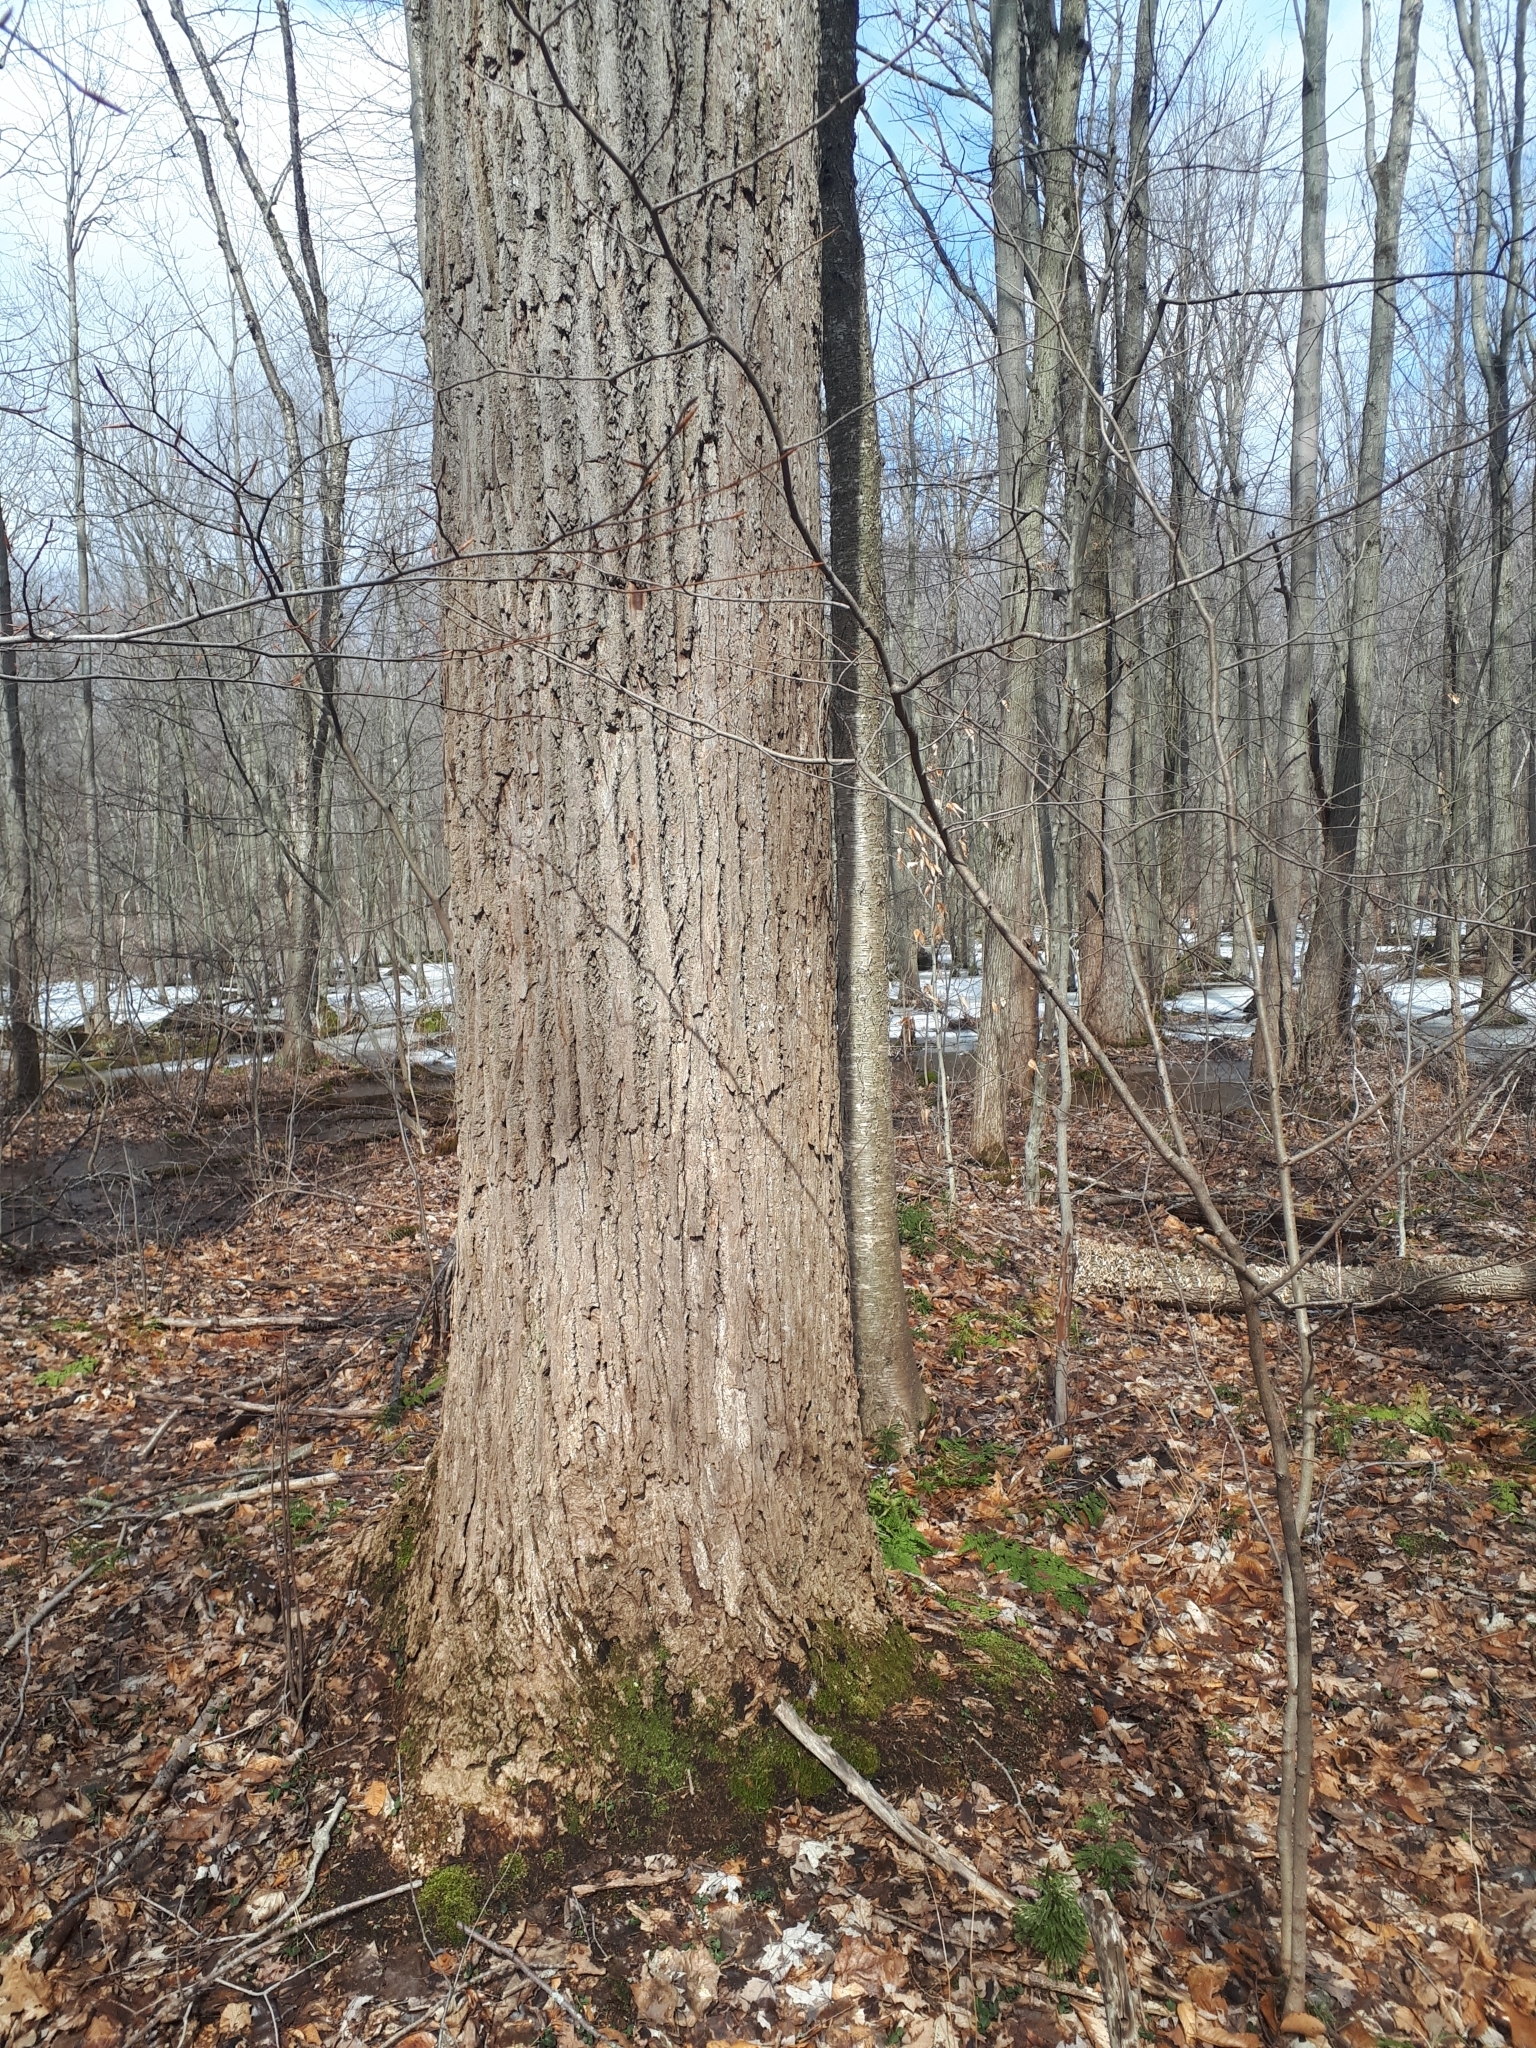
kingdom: Plantae
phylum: Tracheophyta
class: Magnoliopsida
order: Magnoliales
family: Magnoliaceae
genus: Liriodendron
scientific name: Liriodendron tulipifera
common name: Tulip tree
